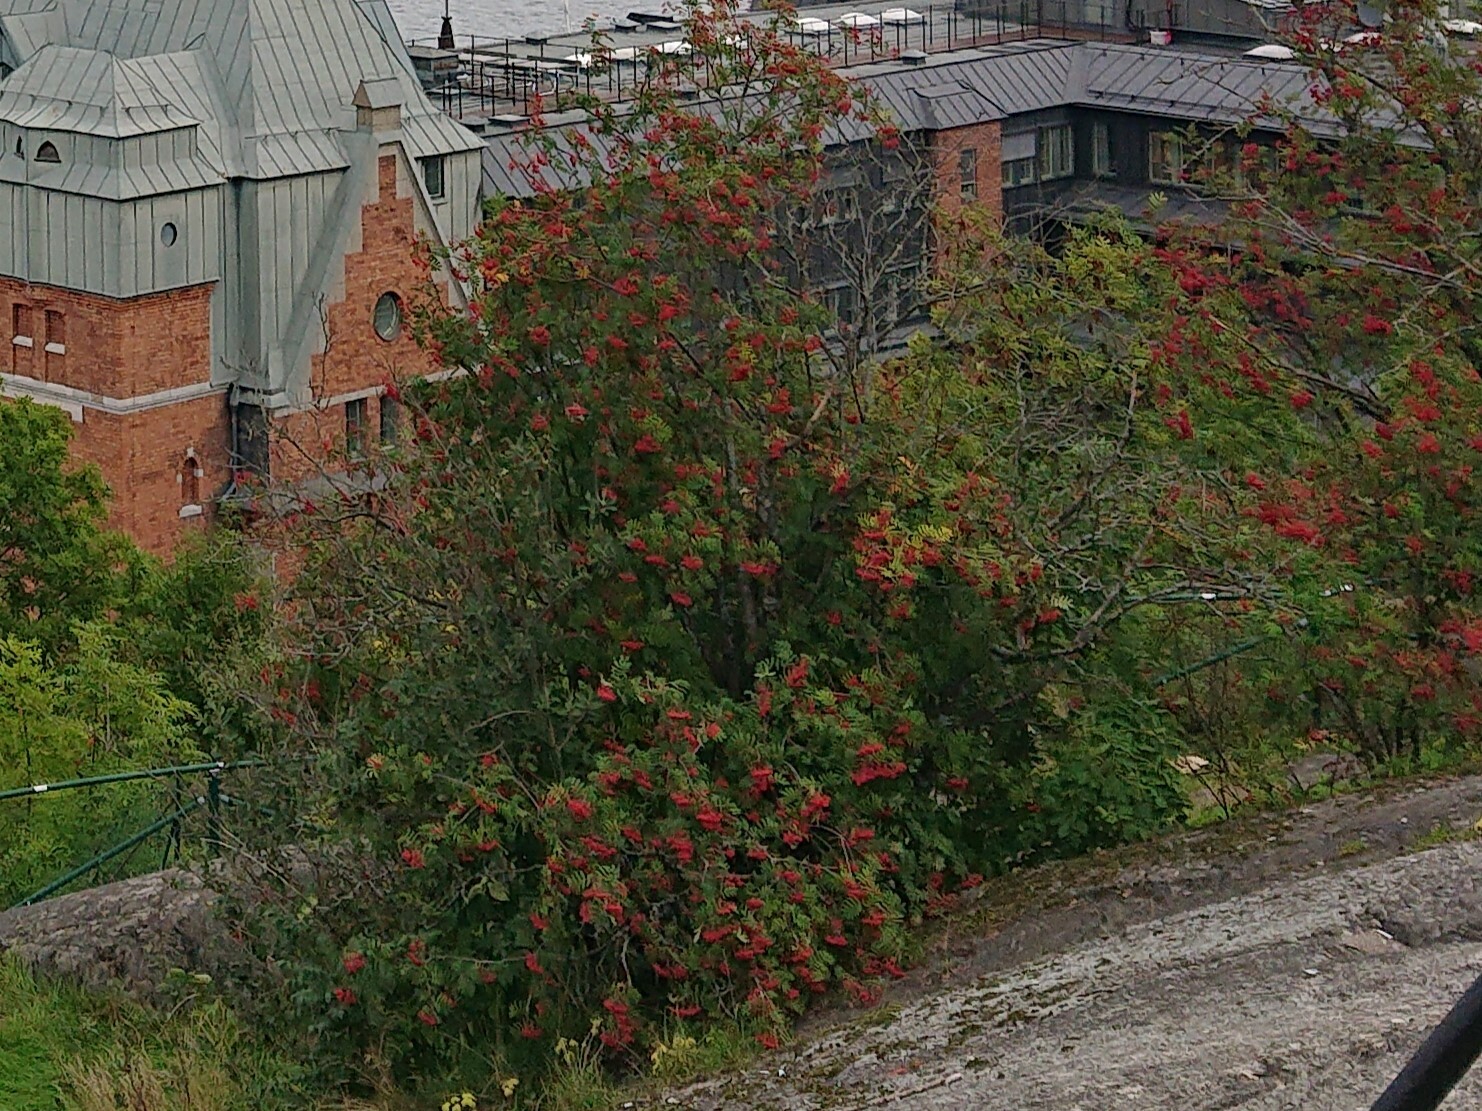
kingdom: Plantae
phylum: Tracheophyta
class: Magnoliopsida
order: Rosales
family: Rosaceae
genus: Sorbus
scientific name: Sorbus aucuparia
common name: Rowan
